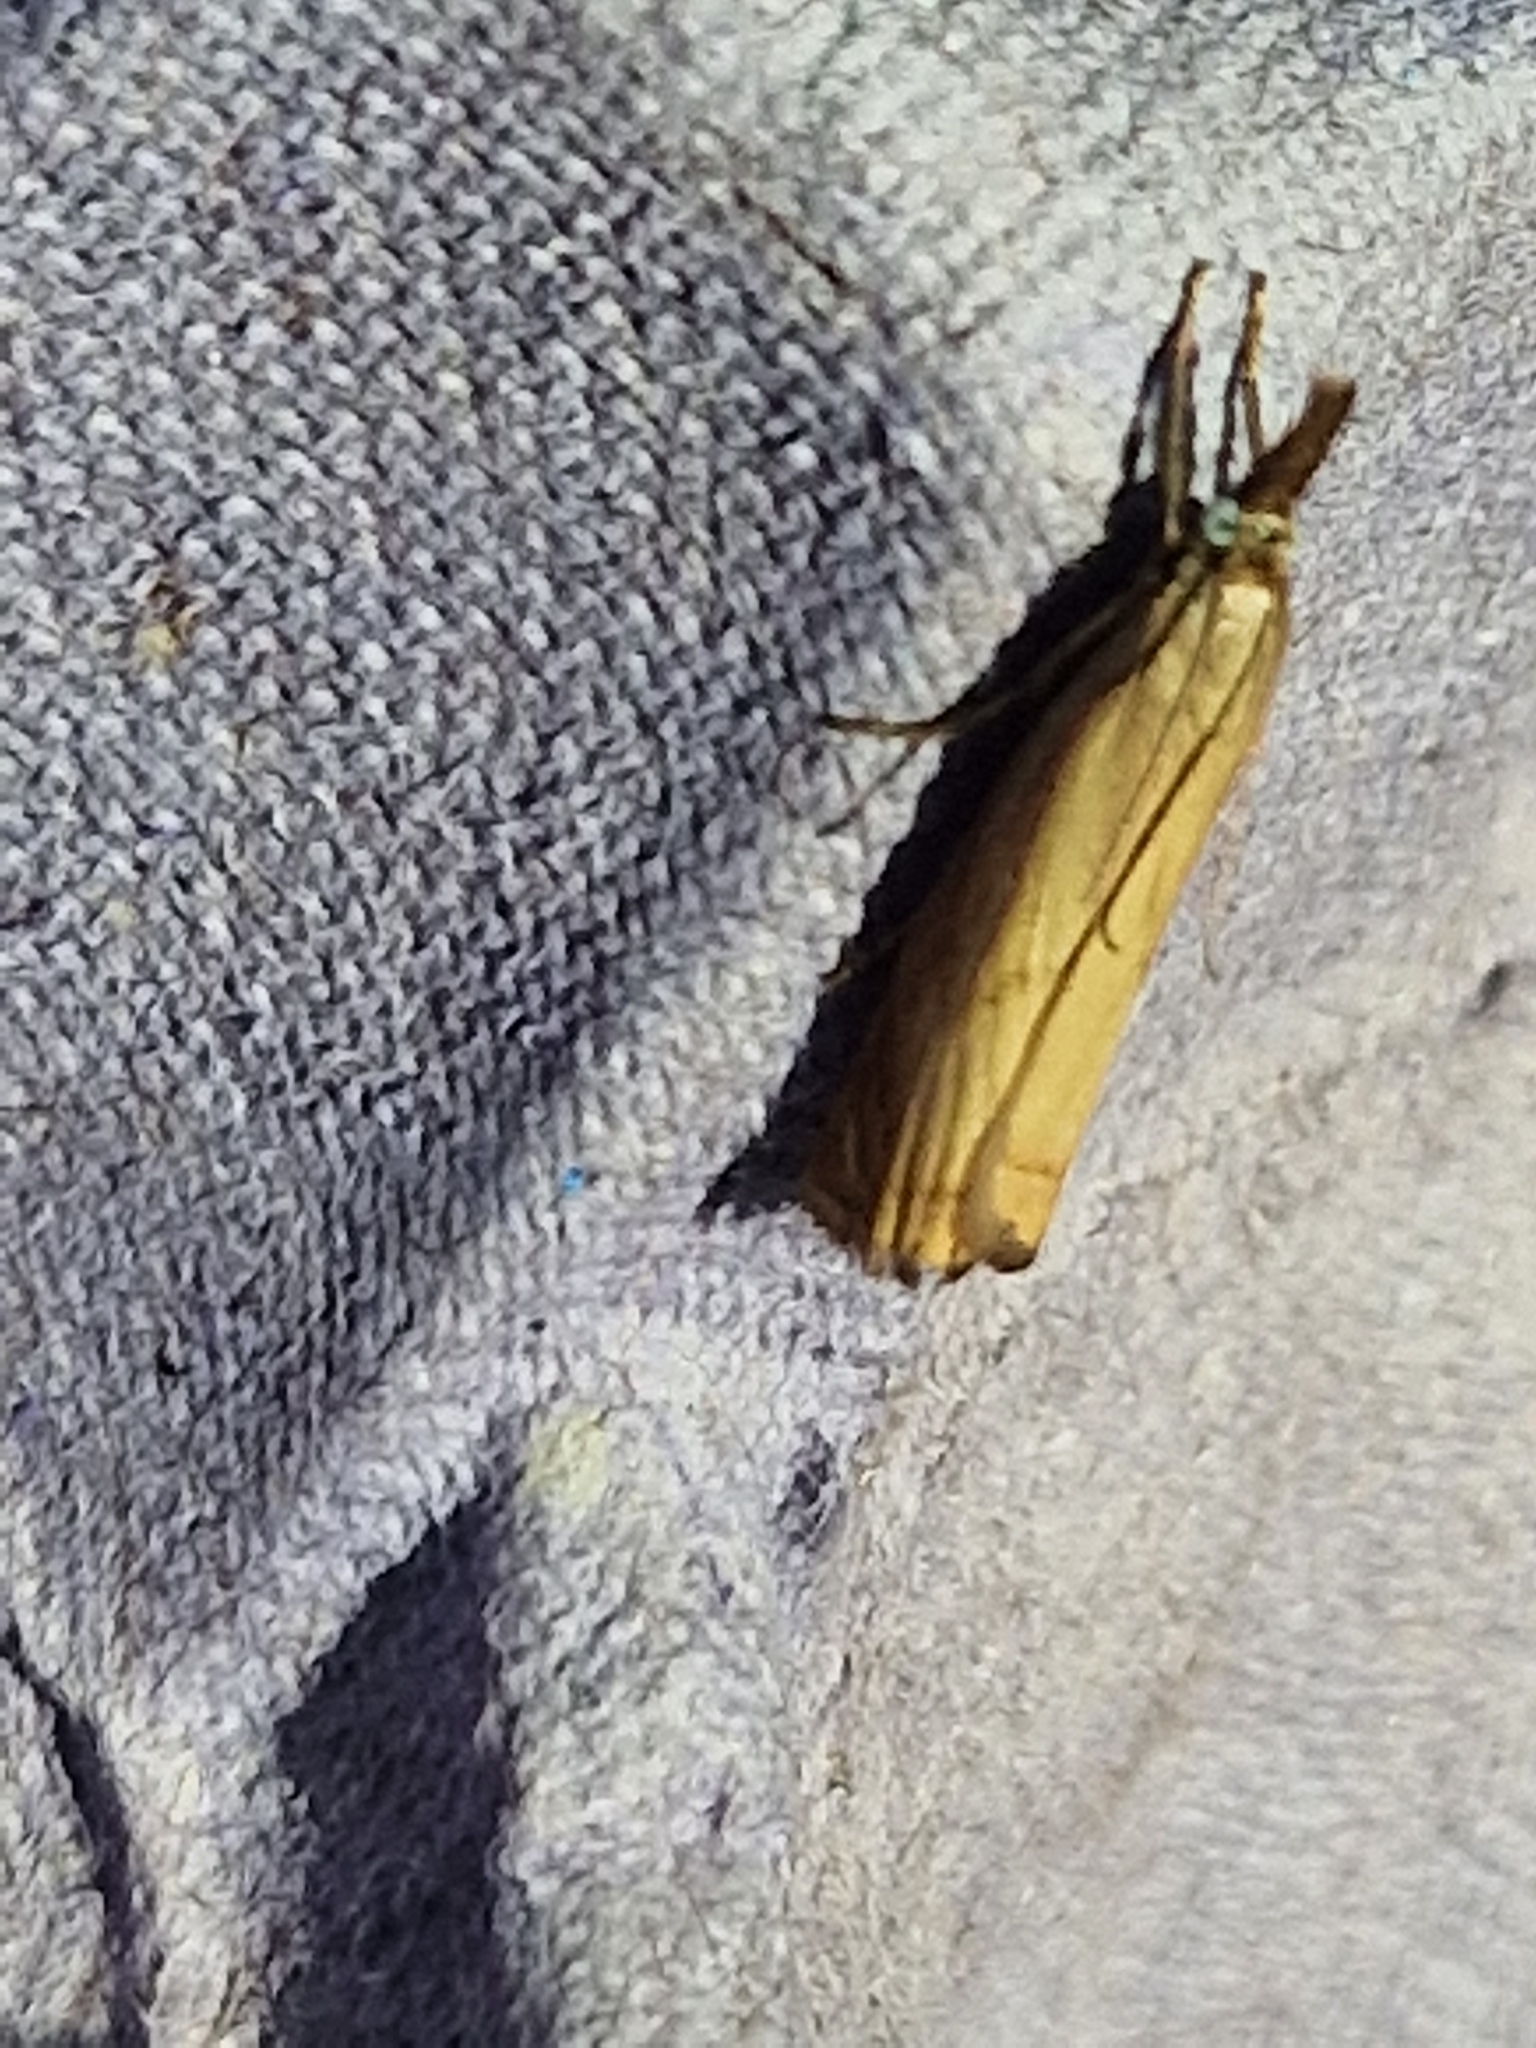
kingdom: Animalia
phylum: Arthropoda
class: Insecta
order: Lepidoptera
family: Crambidae
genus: Chrysoteuchia
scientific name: Chrysoteuchia culmella
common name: Garden grass-veneer
